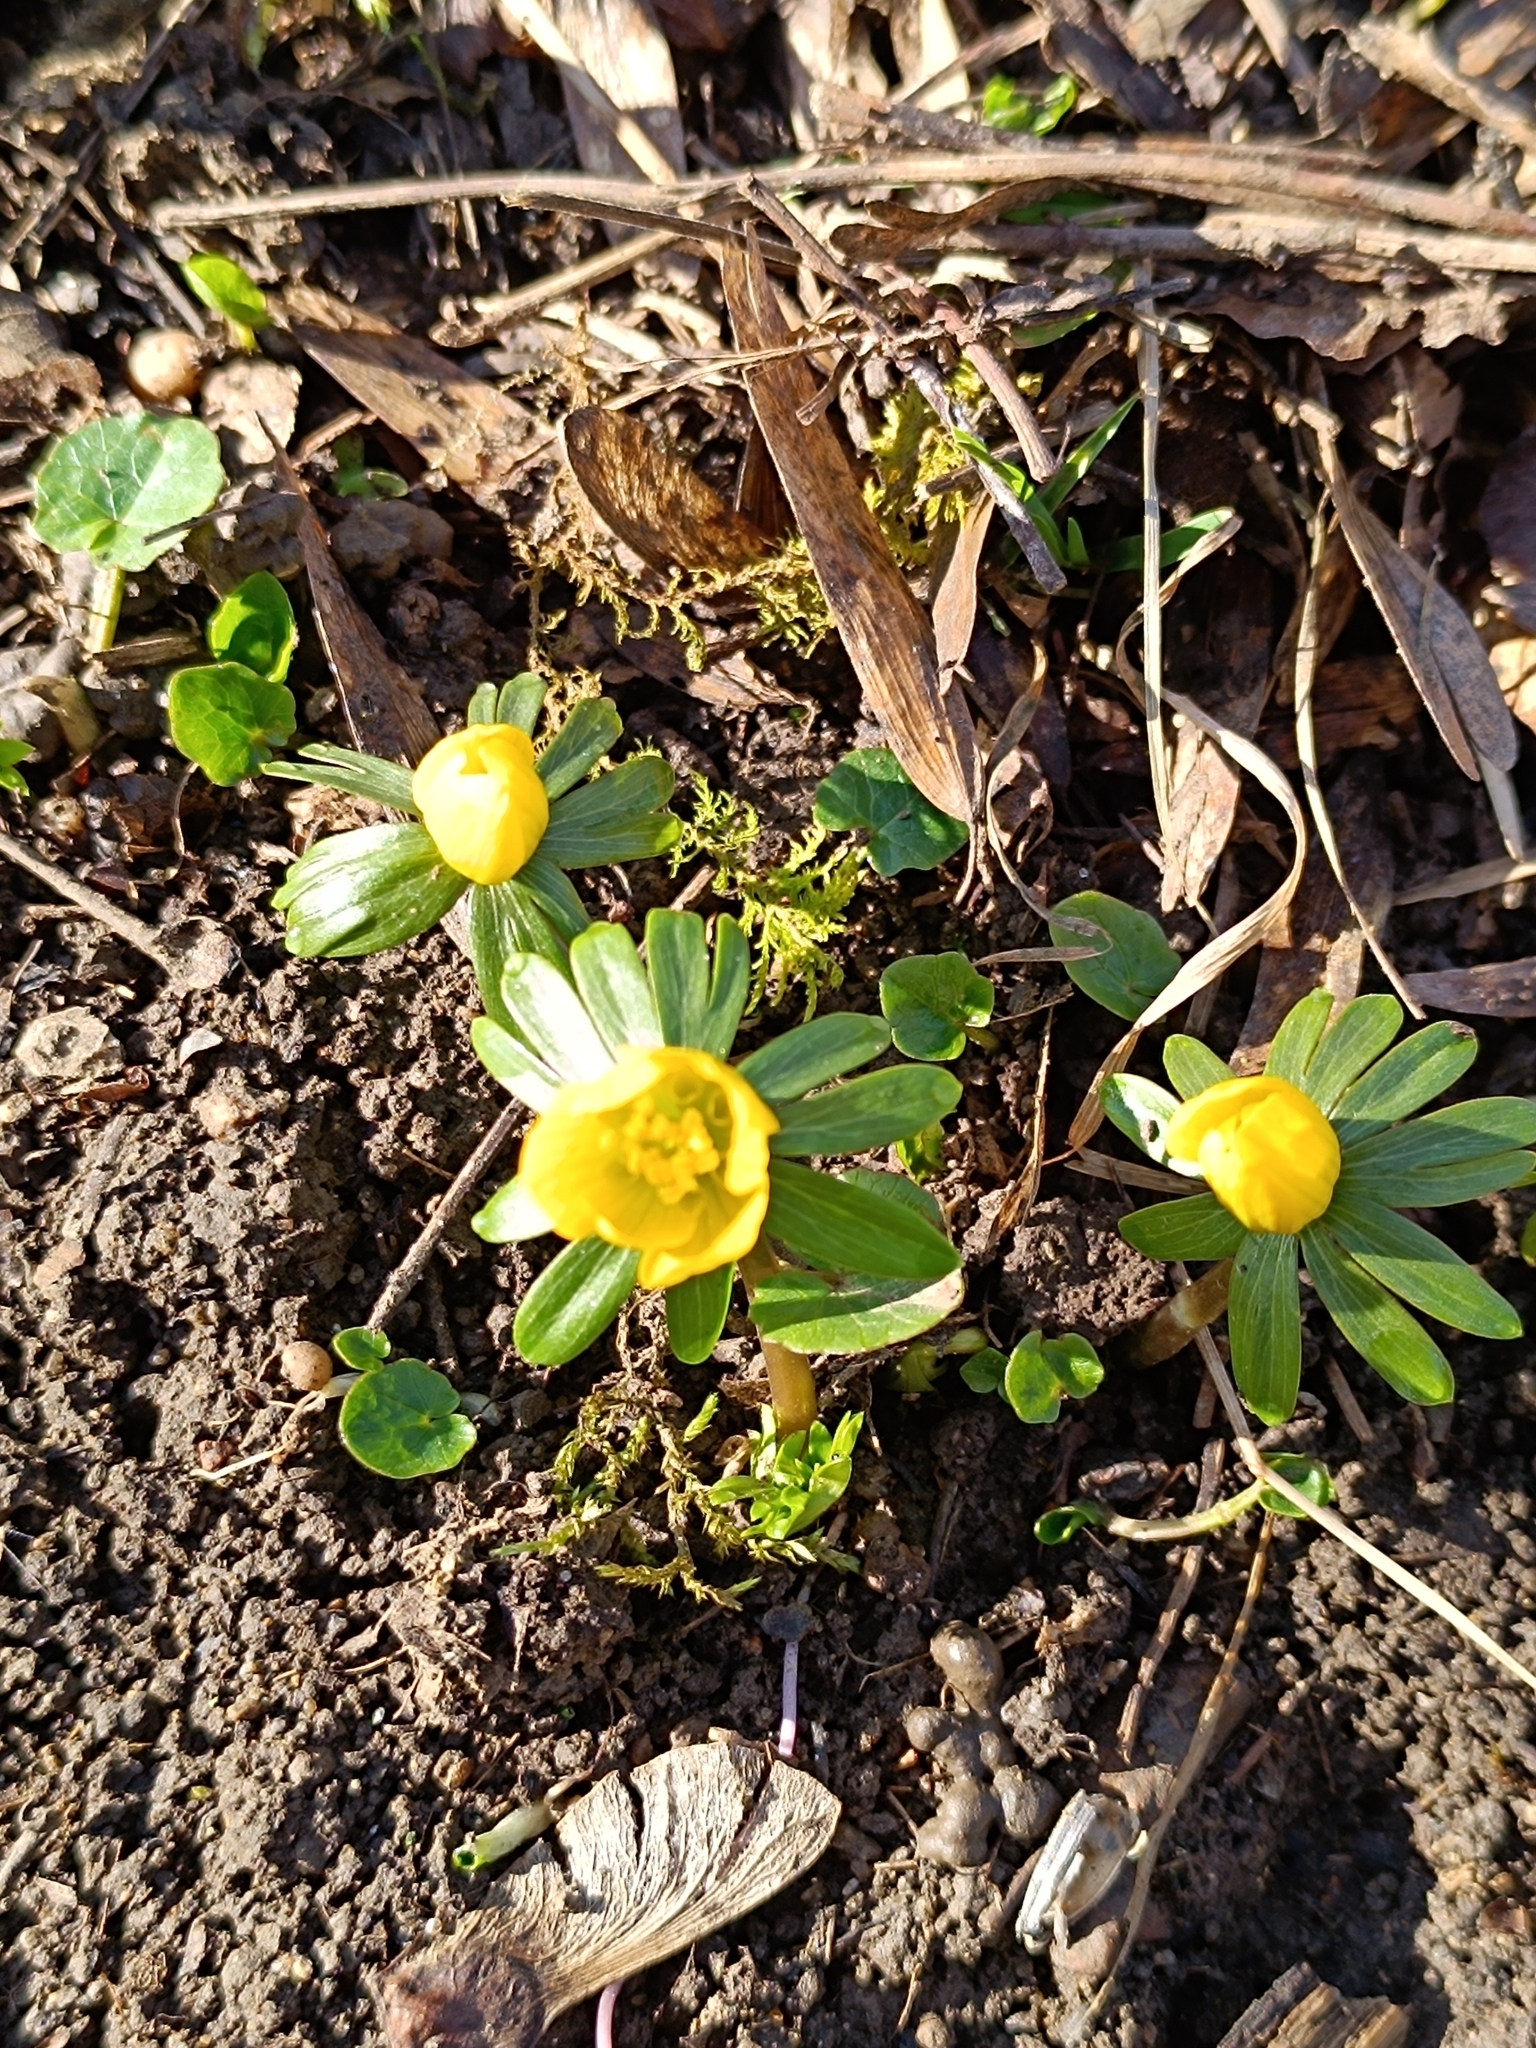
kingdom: Plantae
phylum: Tracheophyta
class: Magnoliopsida
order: Ranunculales
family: Ranunculaceae
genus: Eranthis
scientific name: Eranthis hyemalis
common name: Winter aconite
